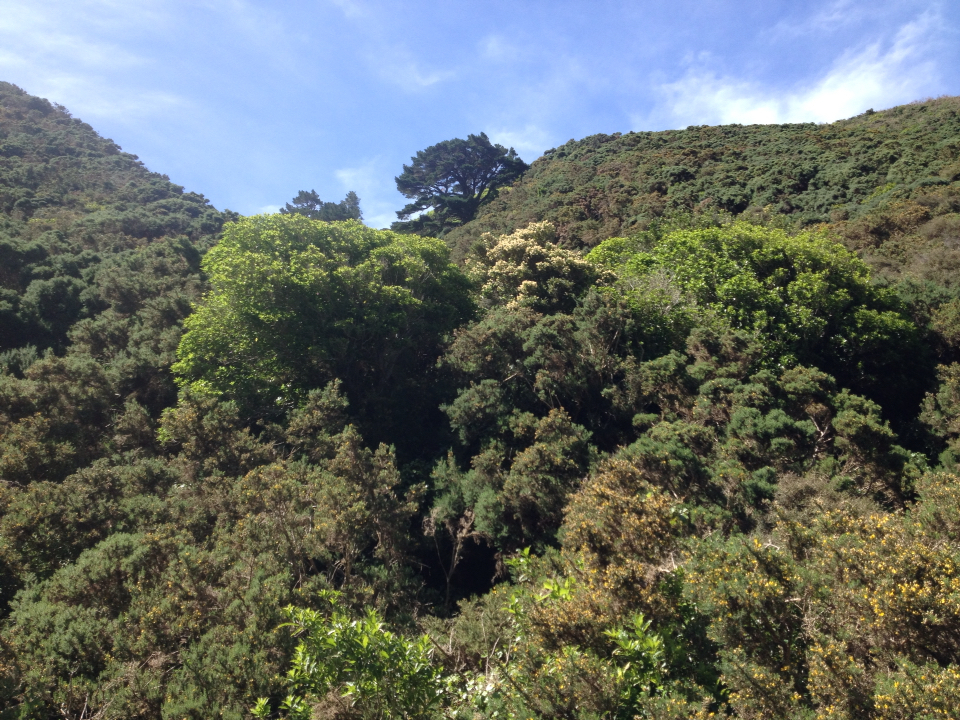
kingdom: Plantae
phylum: Tracheophyta
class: Magnoliopsida
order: Apiales
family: Pennantiaceae
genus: Pennantia
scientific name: Pennantia corymbosa
